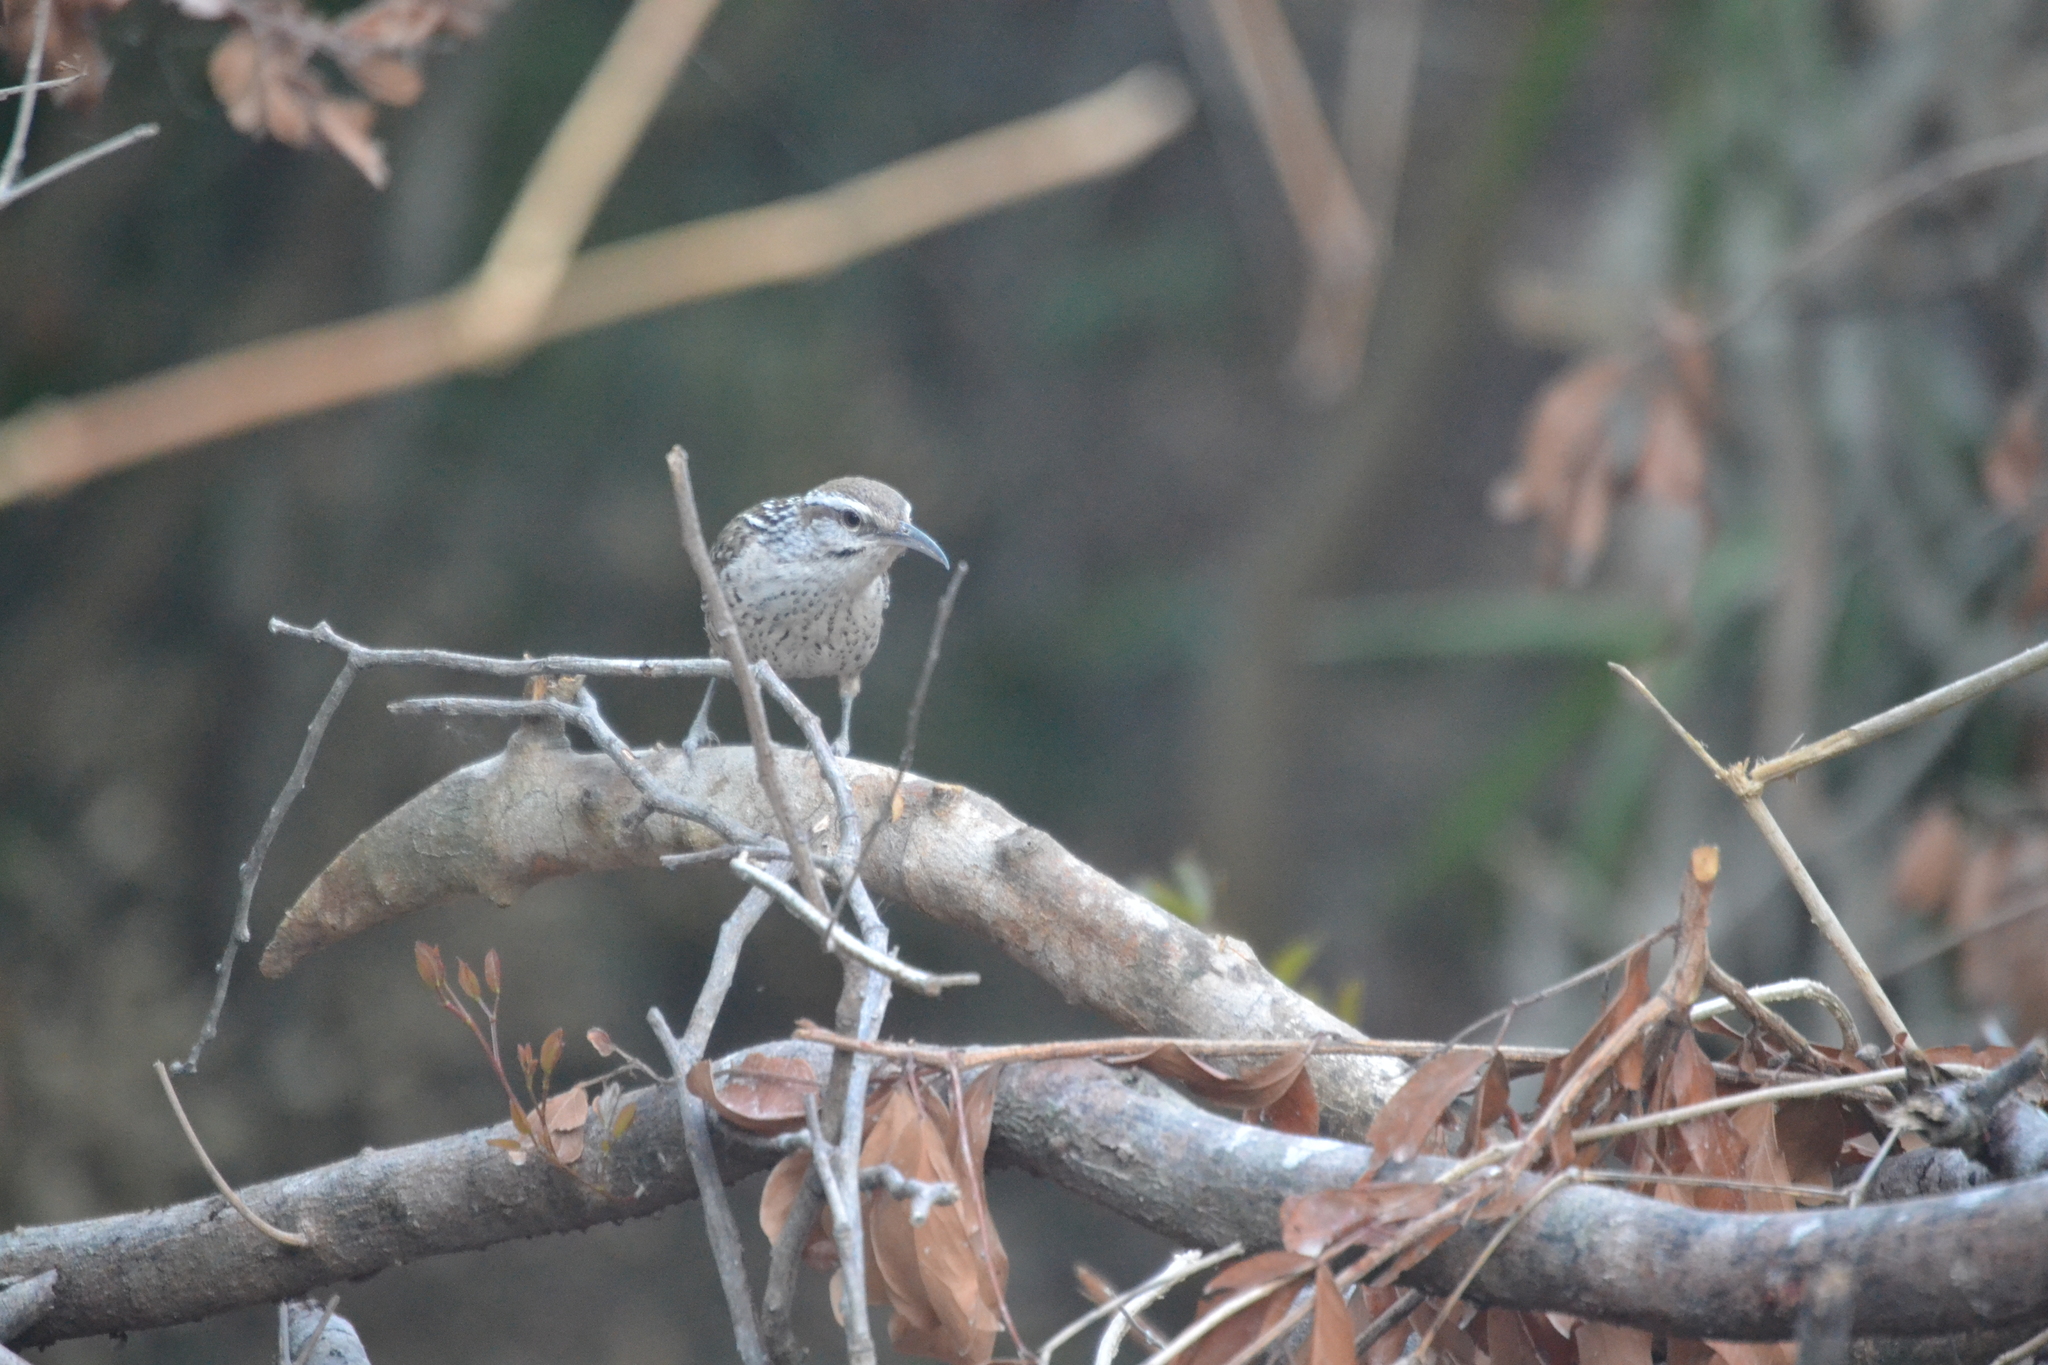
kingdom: Animalia
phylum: Chordata
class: Aves
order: Passeriformes
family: Troglodytidae
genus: Campylorhynchus
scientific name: Campylorhynchus yucatanicus
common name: Yucatan wren
